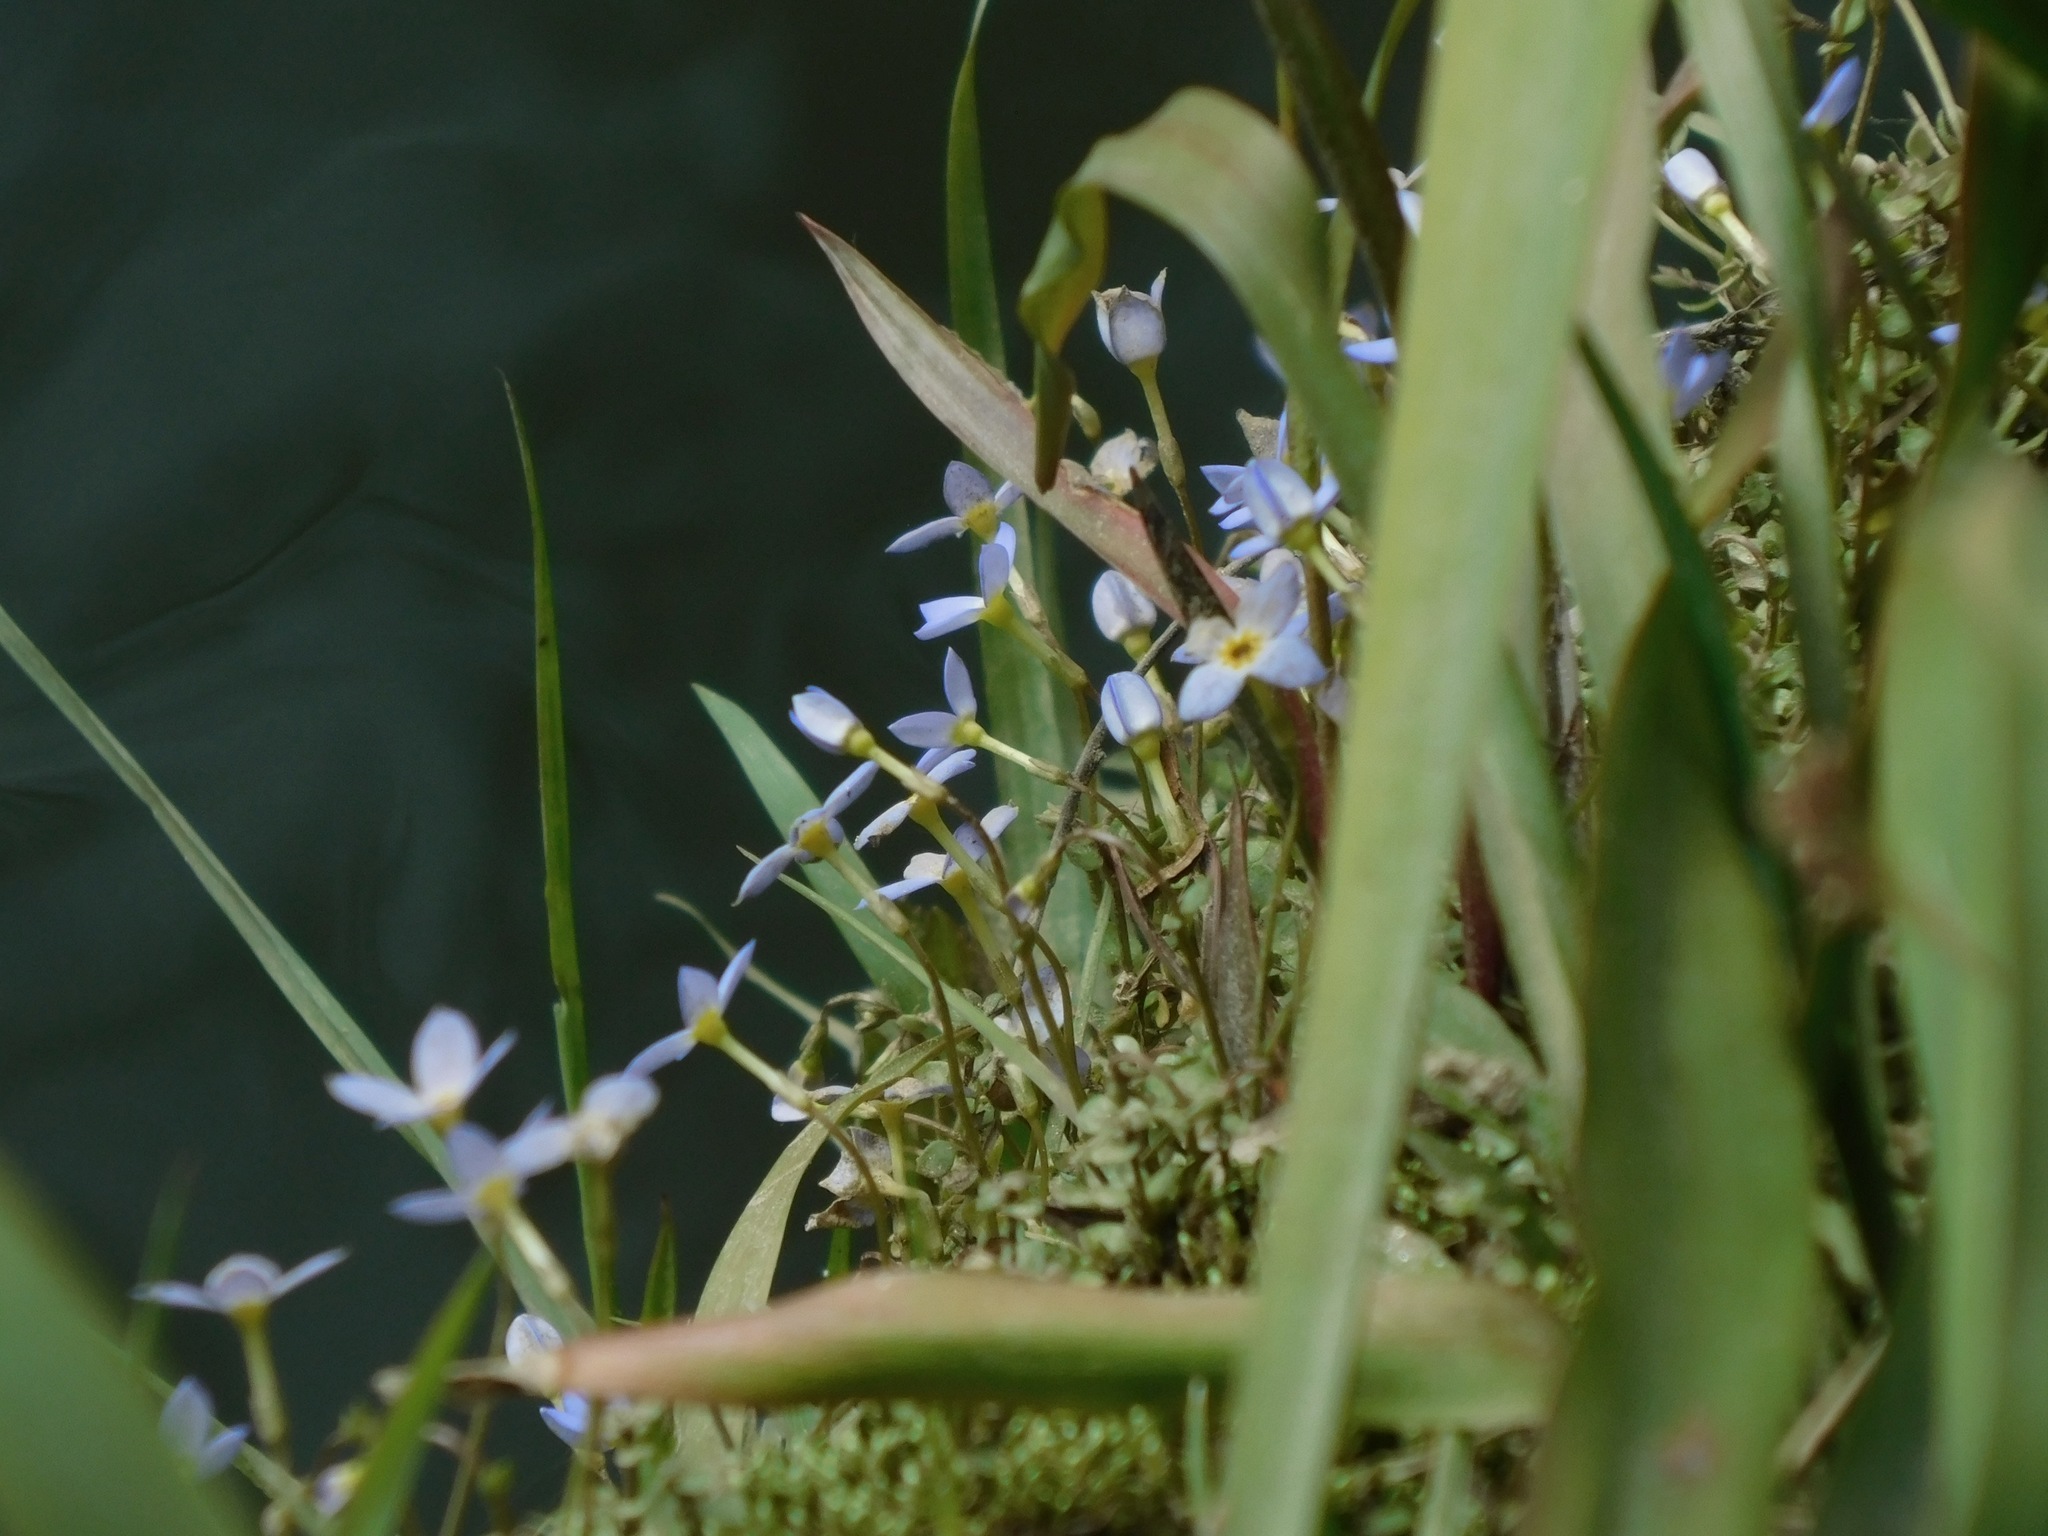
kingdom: Plantae
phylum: Tracheophyta
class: Magnoliopsida
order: Gentianales
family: Rubiaceae
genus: Houstonia
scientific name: Houstonia caerulea
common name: Bluets
